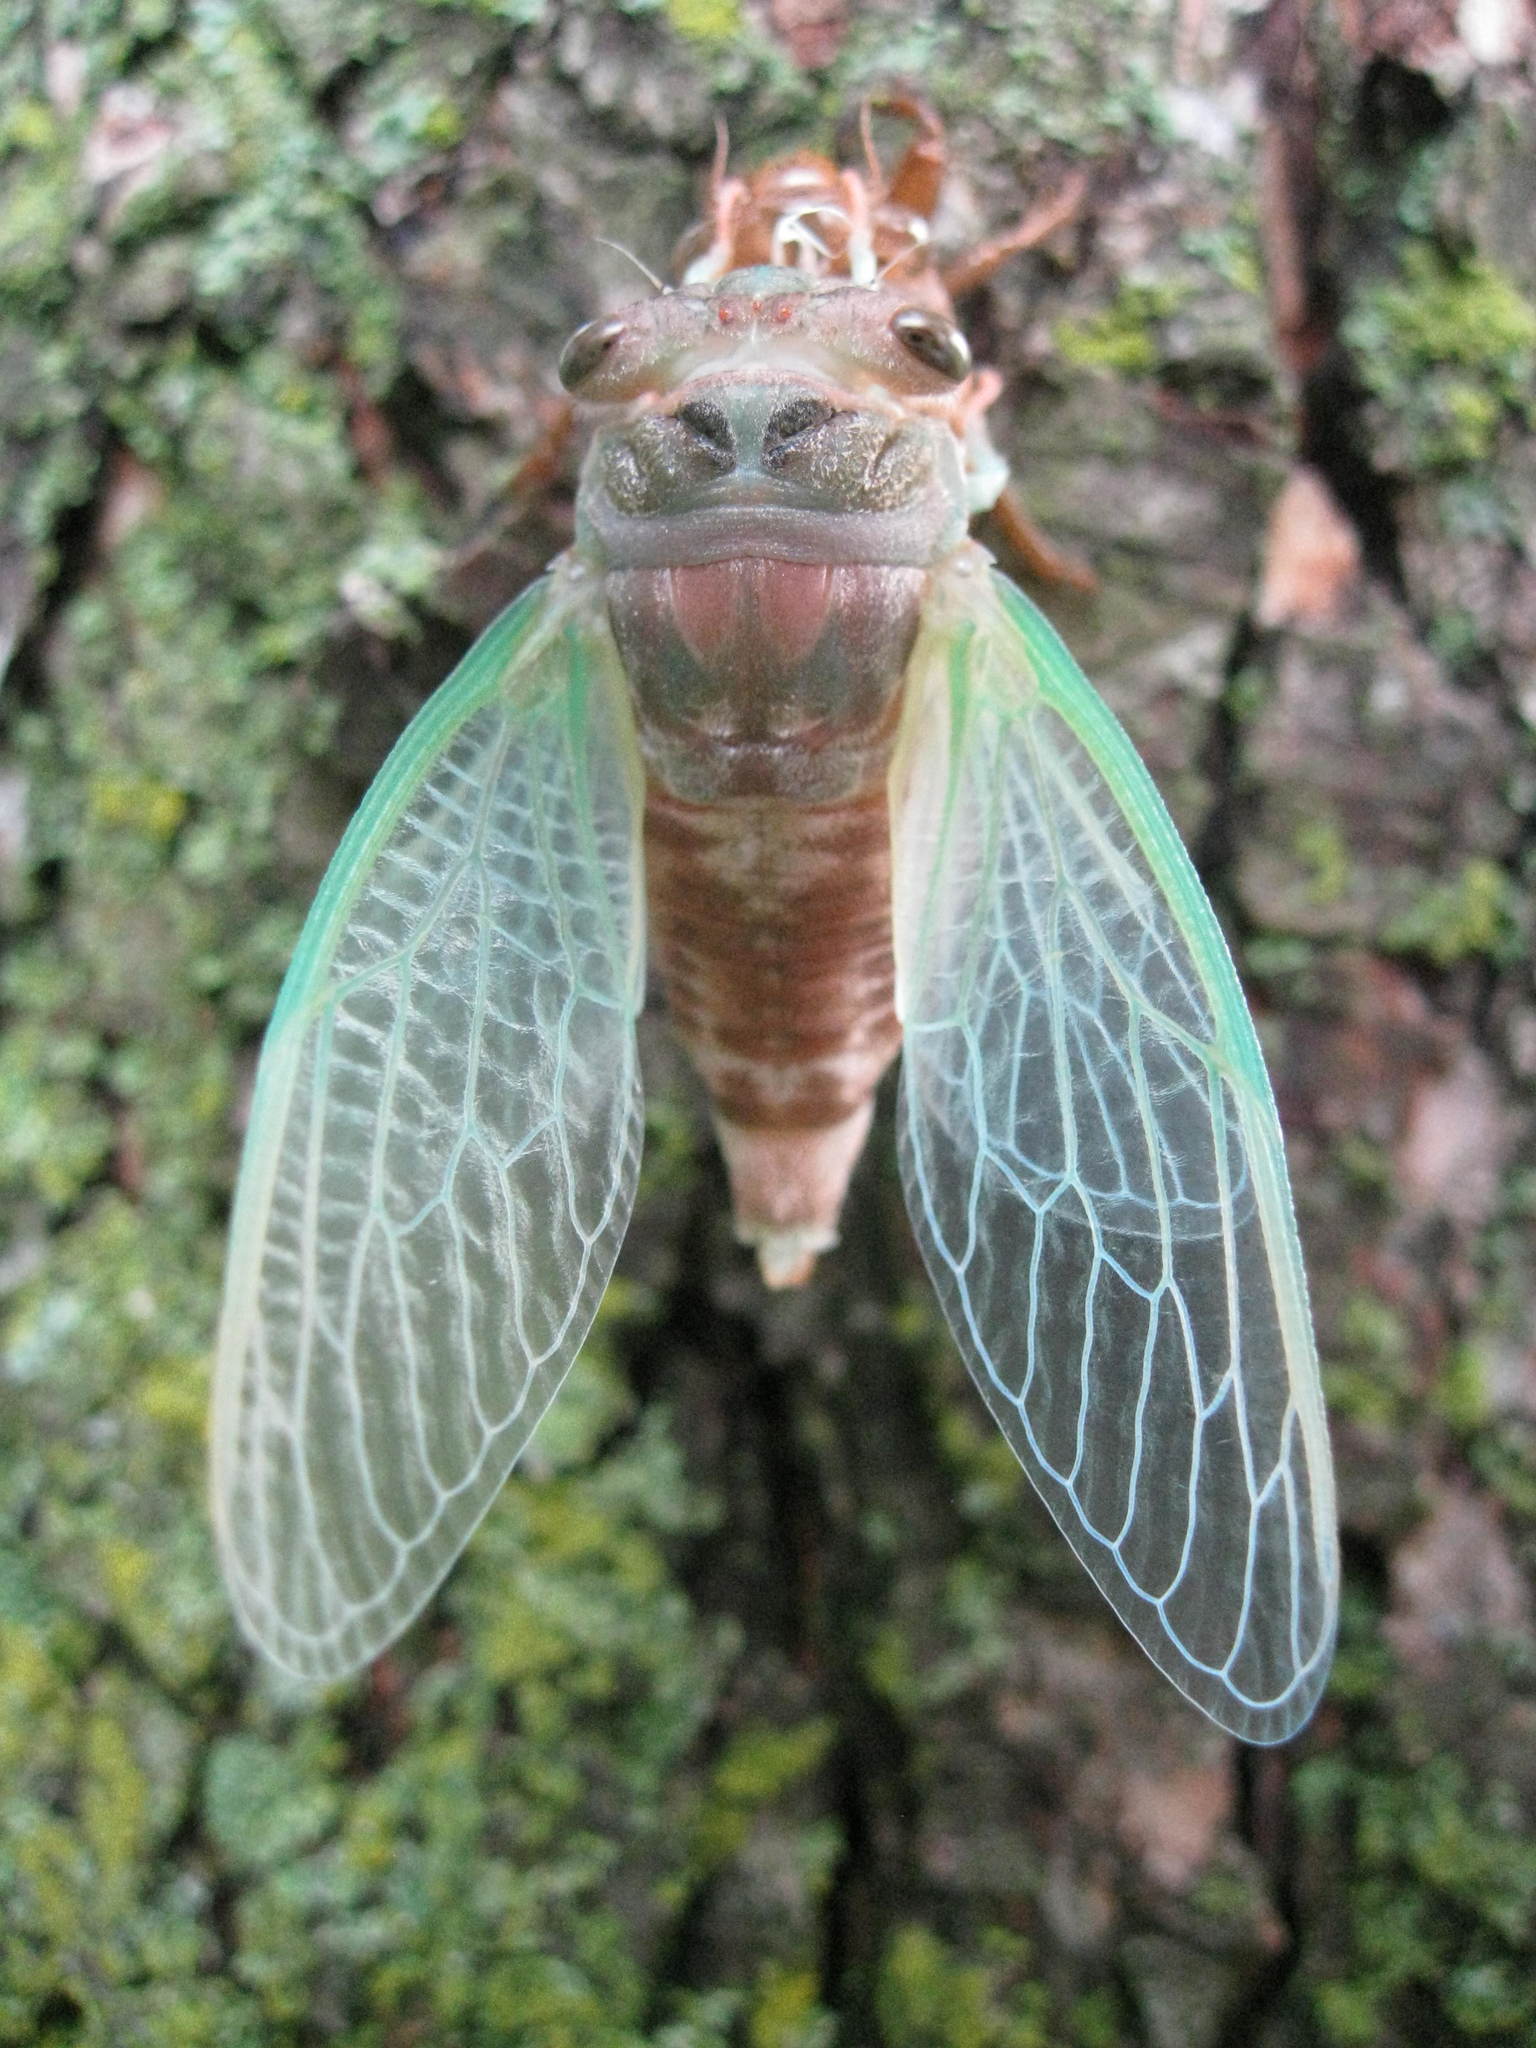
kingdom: Animalia
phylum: Arthropoda
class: Insecta
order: Hemiptera
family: Cicadidae
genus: Neotibicen
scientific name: Neotibicen canicularis
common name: God-day cicada
